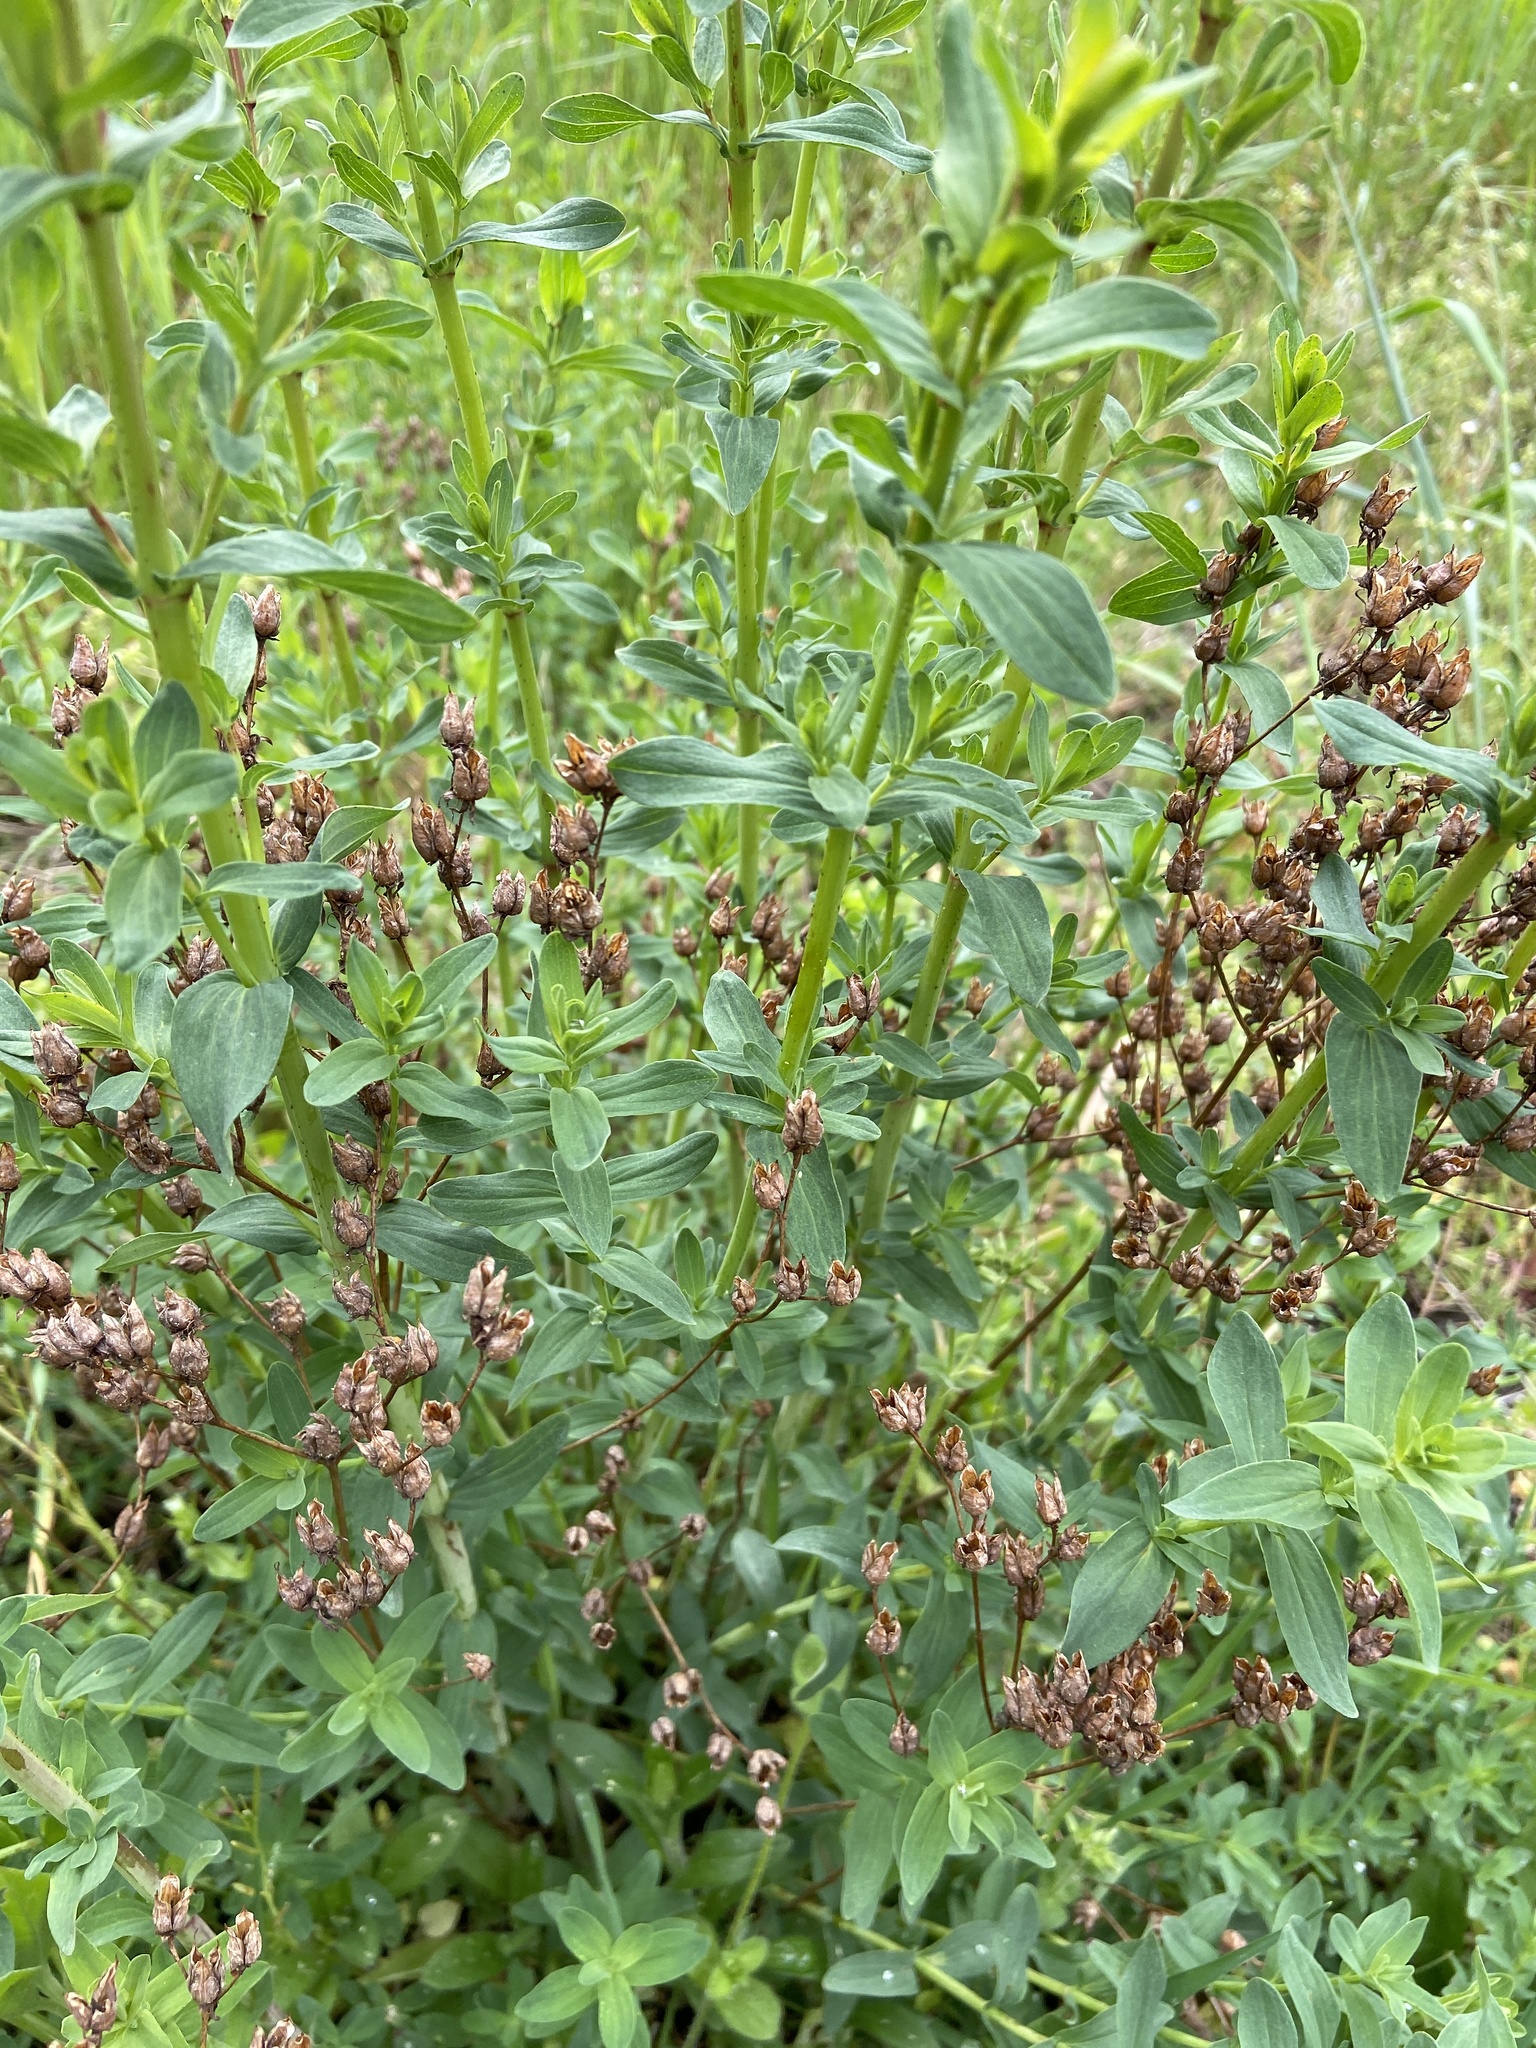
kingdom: Plantae
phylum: Tracheophyta
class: Magnoliopsida
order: Malpighiales
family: Hypericaceae
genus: Hypericum
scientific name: Hypericum perforatum
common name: Common st. johnswort
